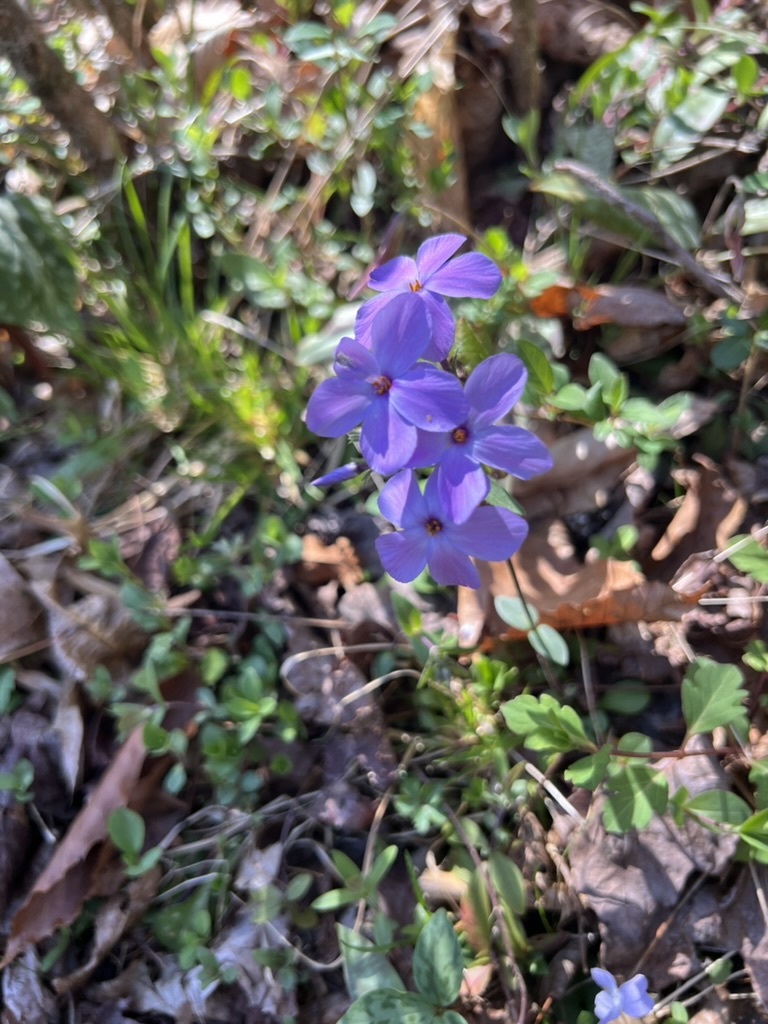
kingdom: Plantae
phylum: Tracheophyta
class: Magnoliopsida
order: Ericales
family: Polemoniaceae
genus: Phlox
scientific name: Phlox stolonifera
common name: Creeping phlox
